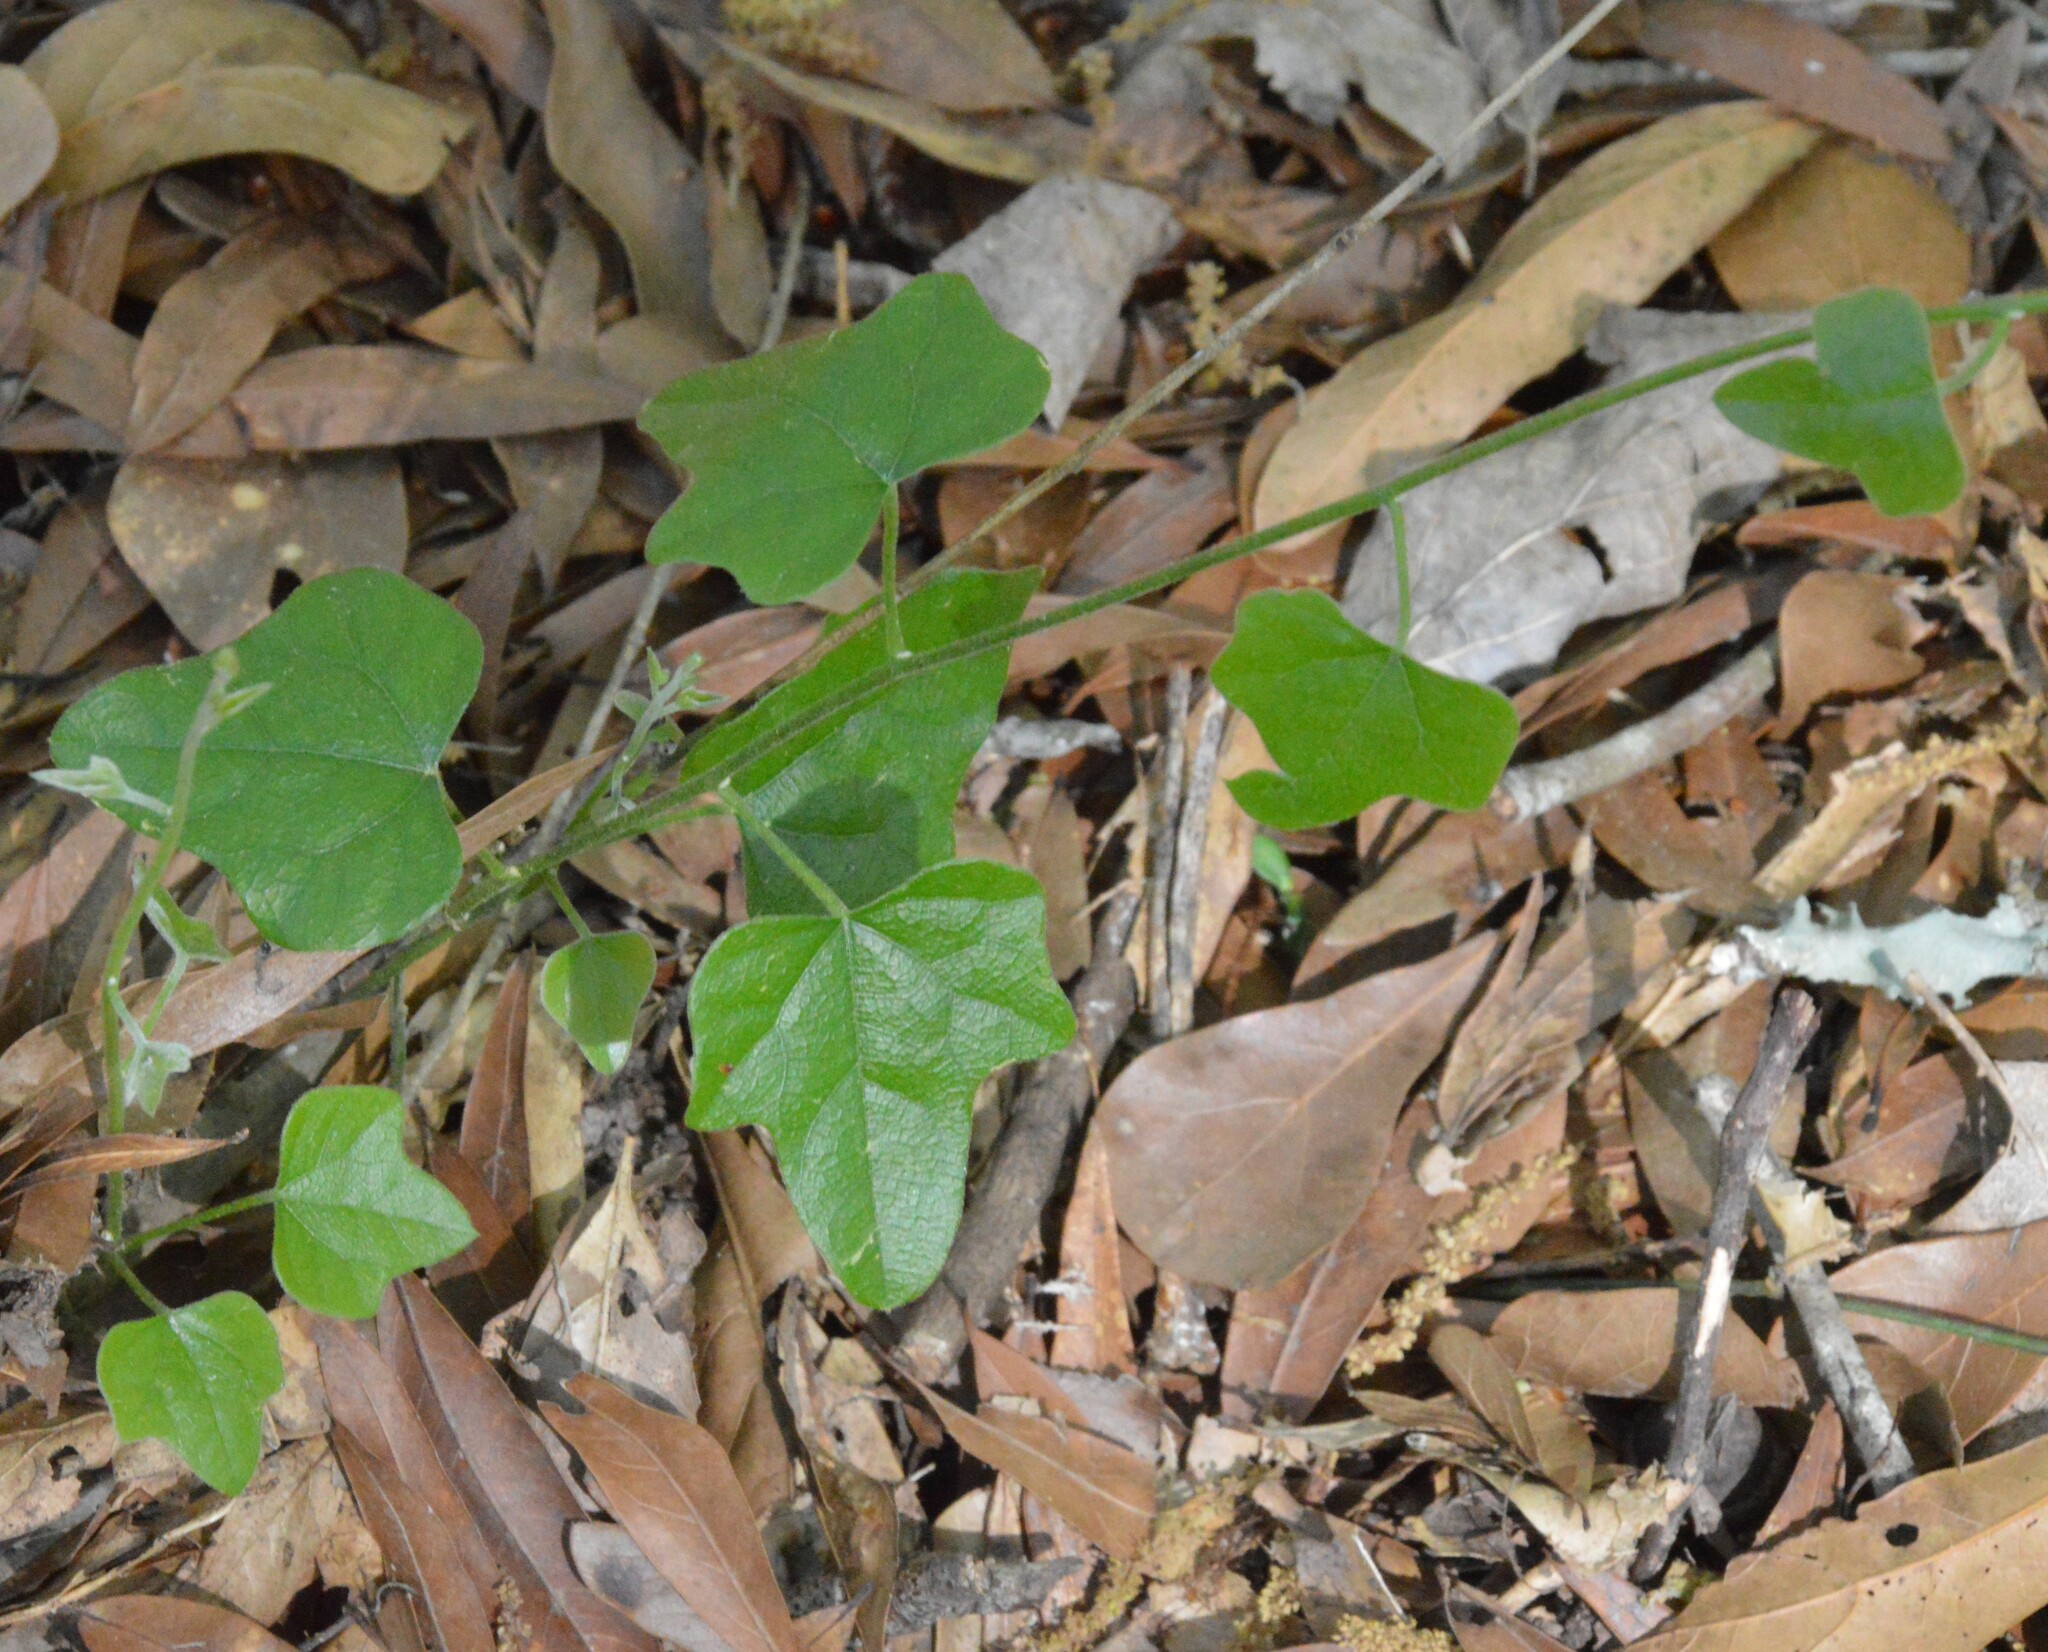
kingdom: Plantae
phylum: Tracheophyta
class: Magnoliopsida
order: Ranunculales
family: Menispermaceae
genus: Cocculus
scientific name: Cocculus carolinus
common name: Carolina moonseed
